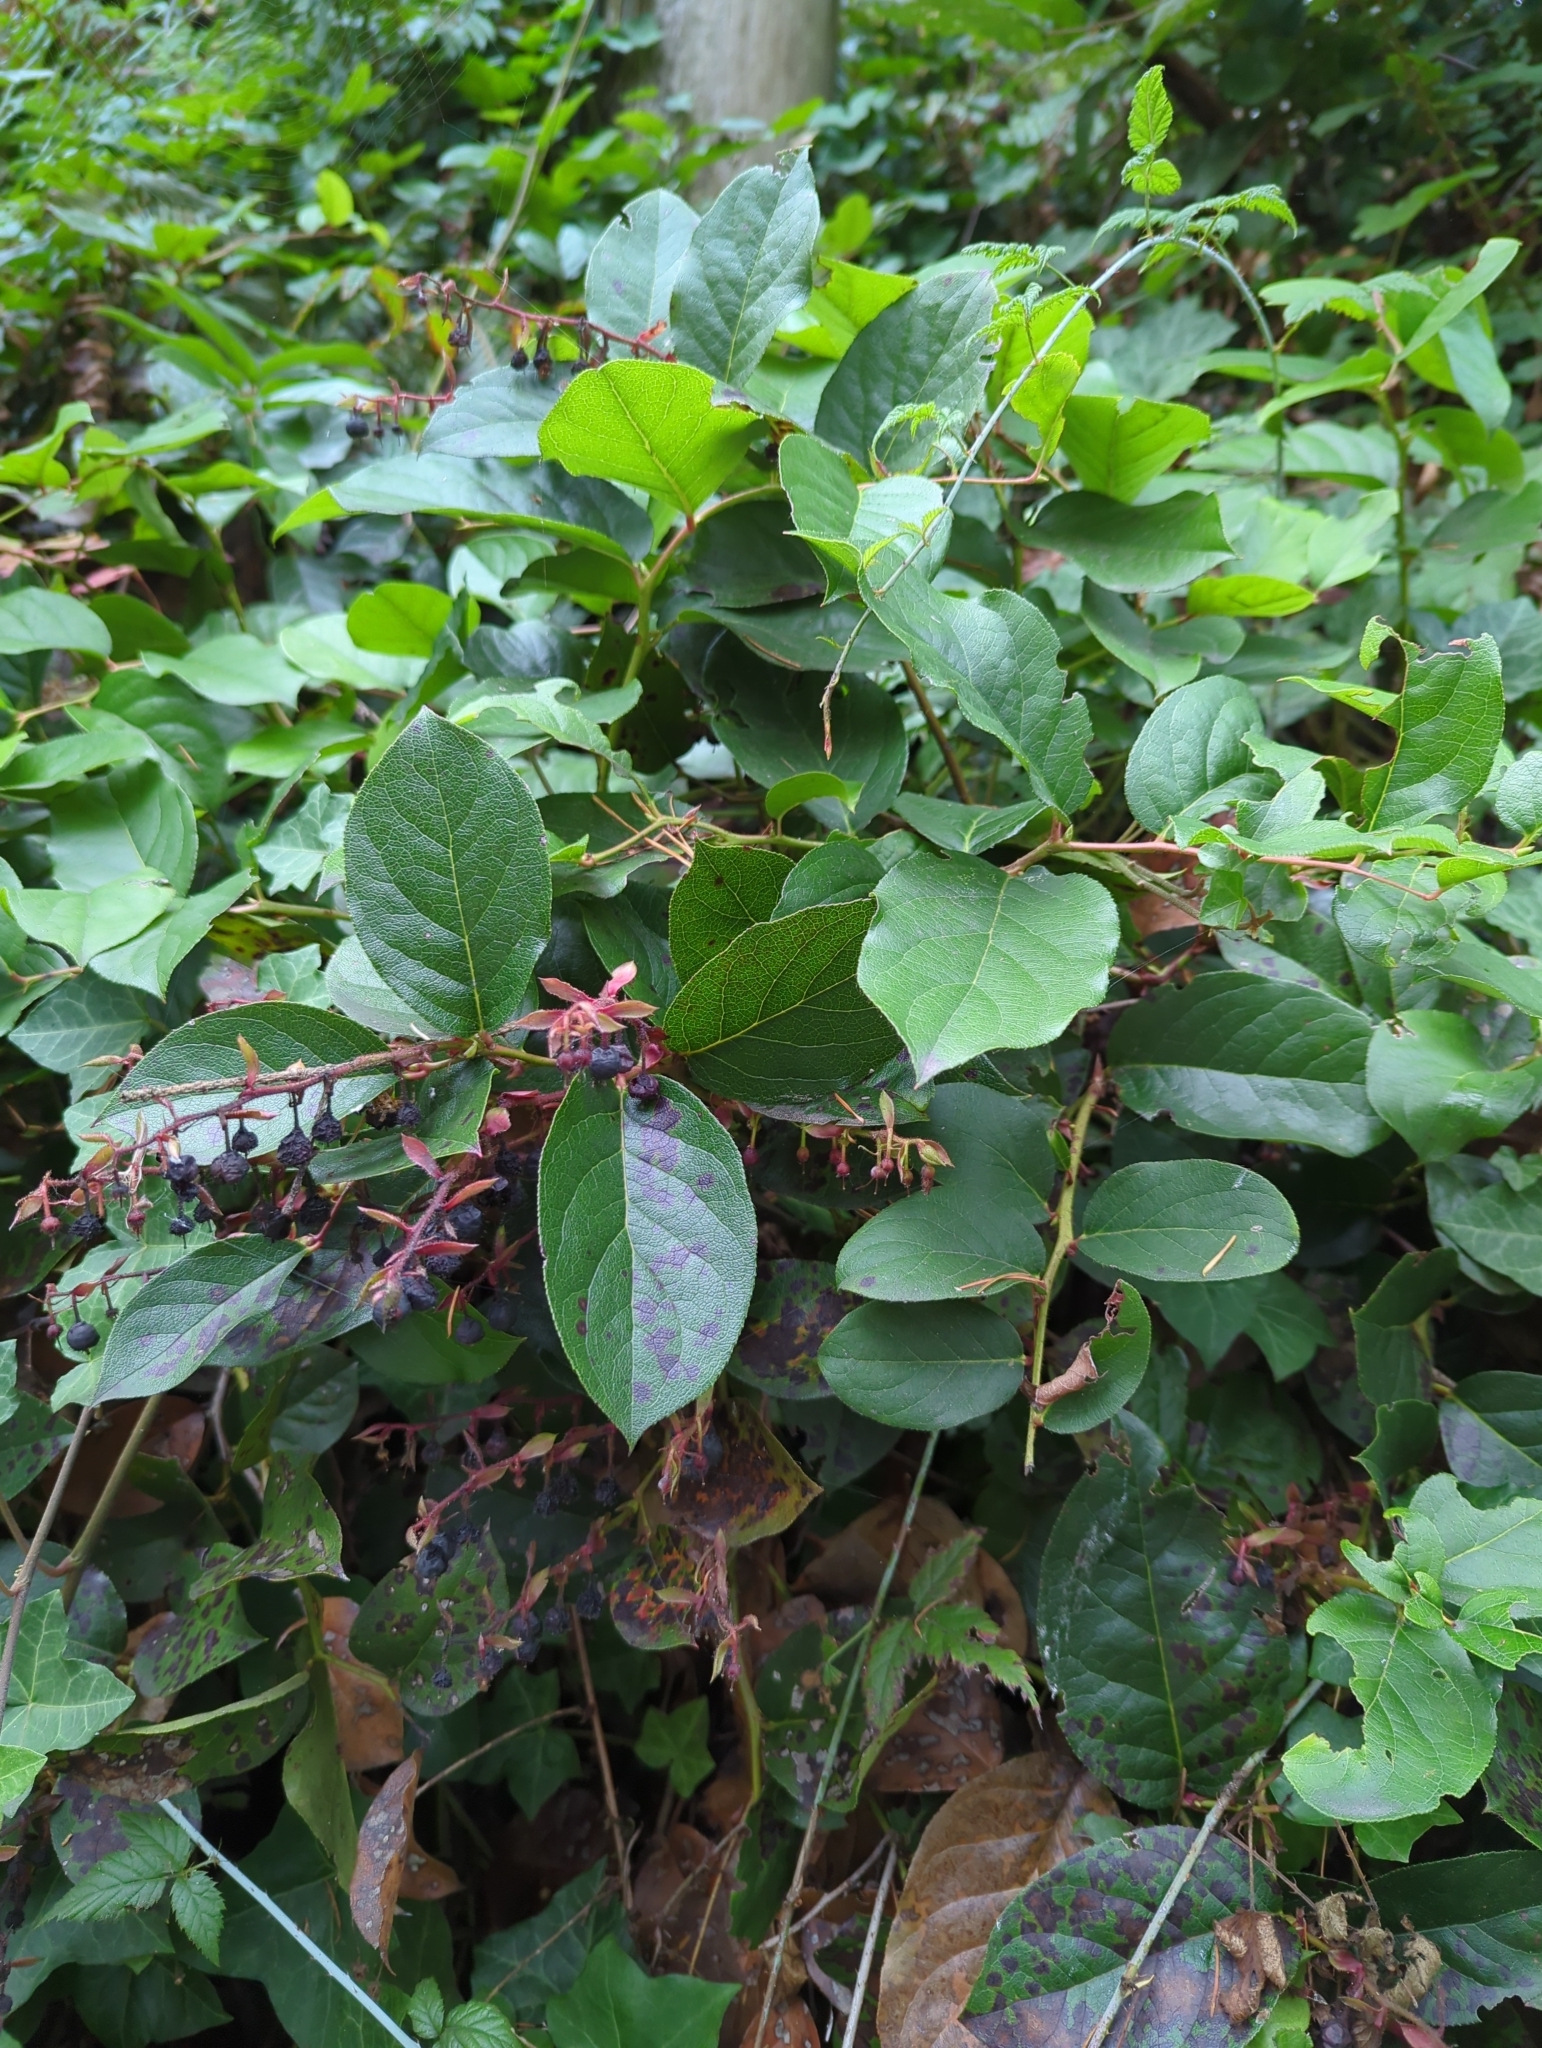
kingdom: Plantae
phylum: Tracheophyta
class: Magnoliopsida
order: Ericales
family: Ericaceae
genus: Gaultheria
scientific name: Gaultheria shallon
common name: Shallon
